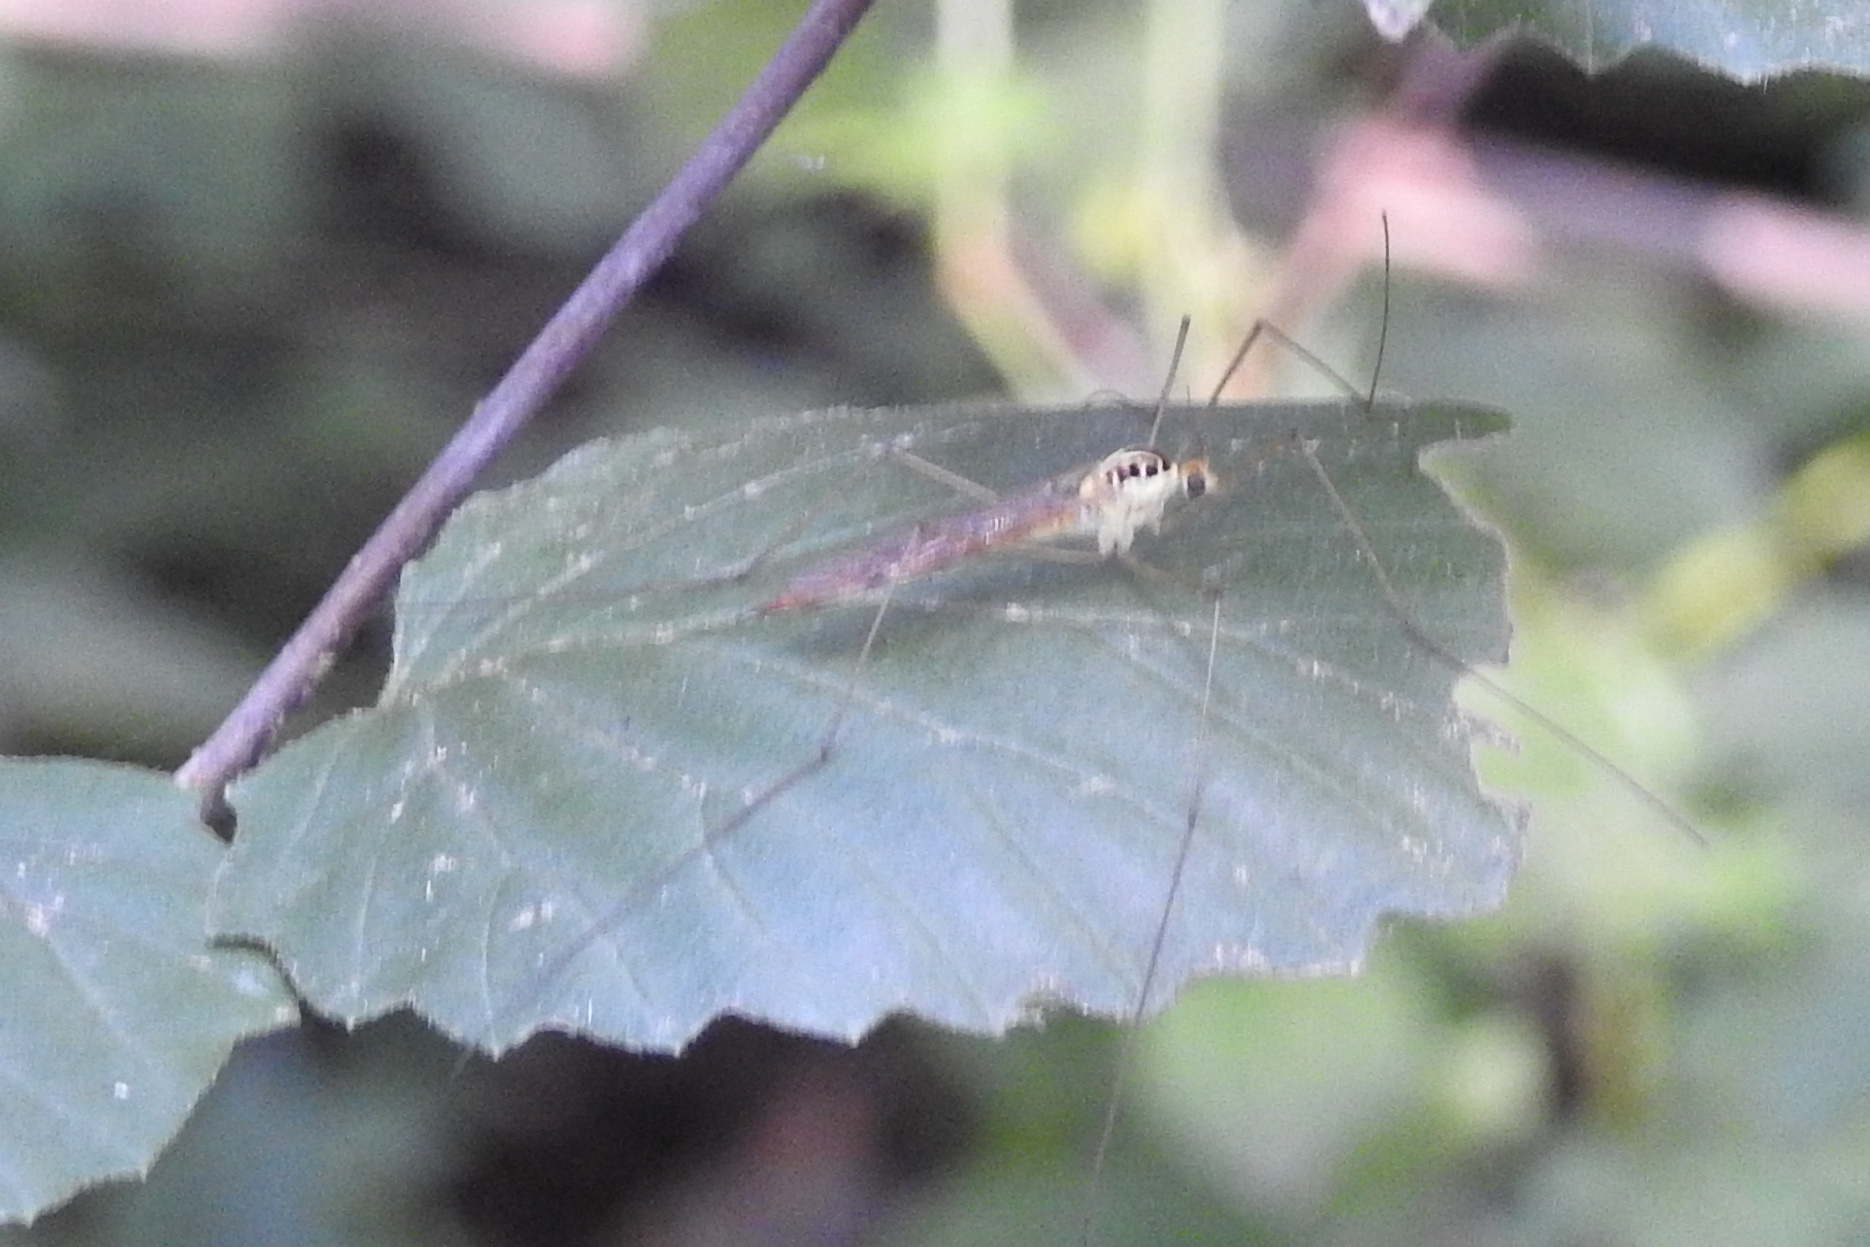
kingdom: Animalia
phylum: Arthropoda
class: Insecta
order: Diptera
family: Tipulidae
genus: Nephrotoma
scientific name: Nephrotoma virescens
